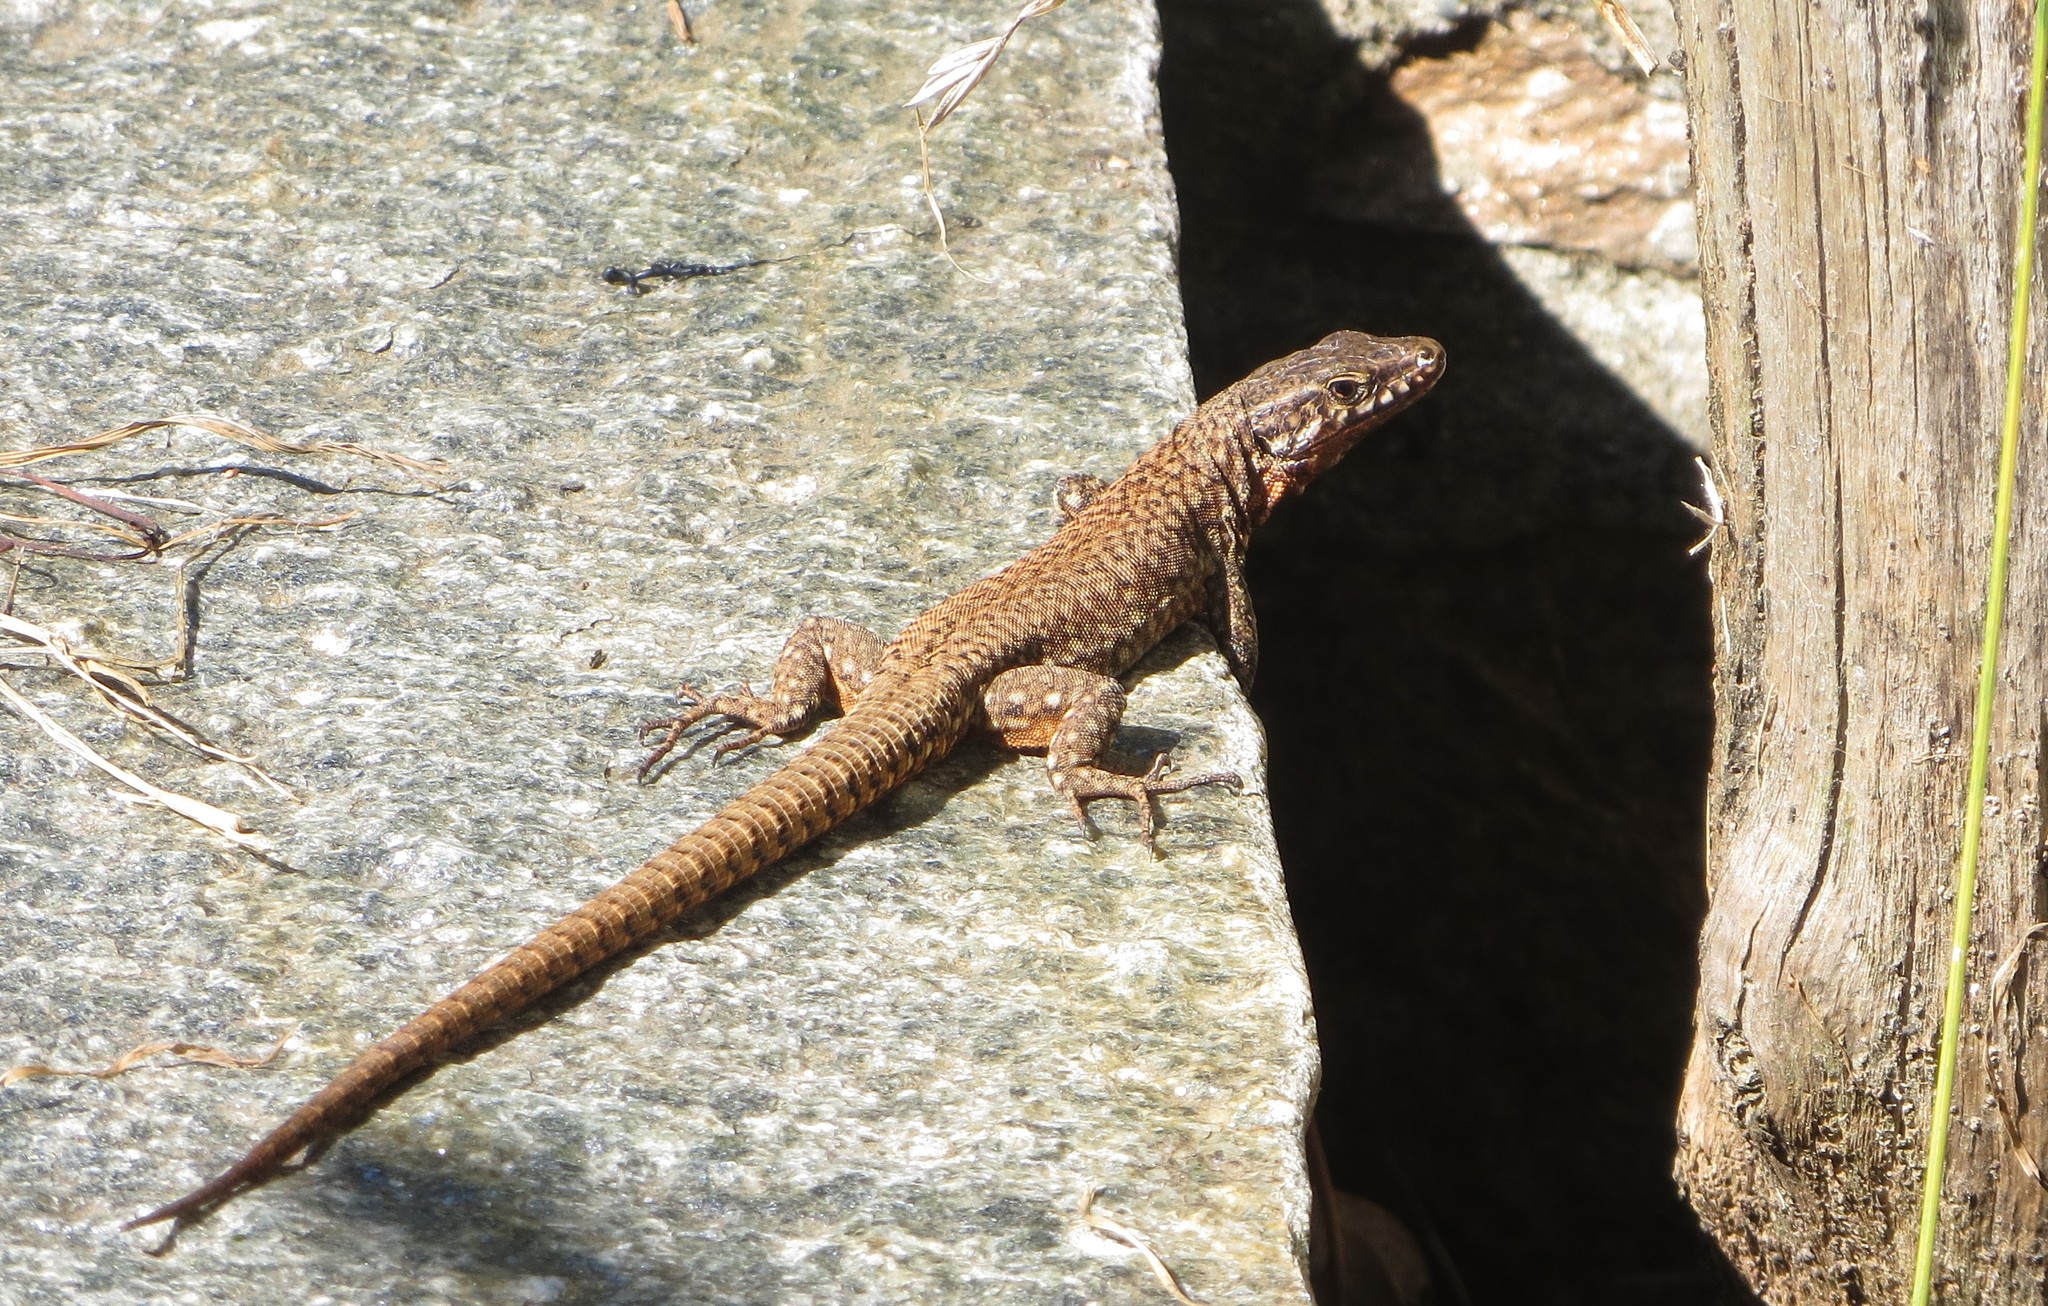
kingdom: Animalia
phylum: Chordata
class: Squamata
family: Lacertidae
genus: Podarcis
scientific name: Podarcis muralis
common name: Common wall lizard
